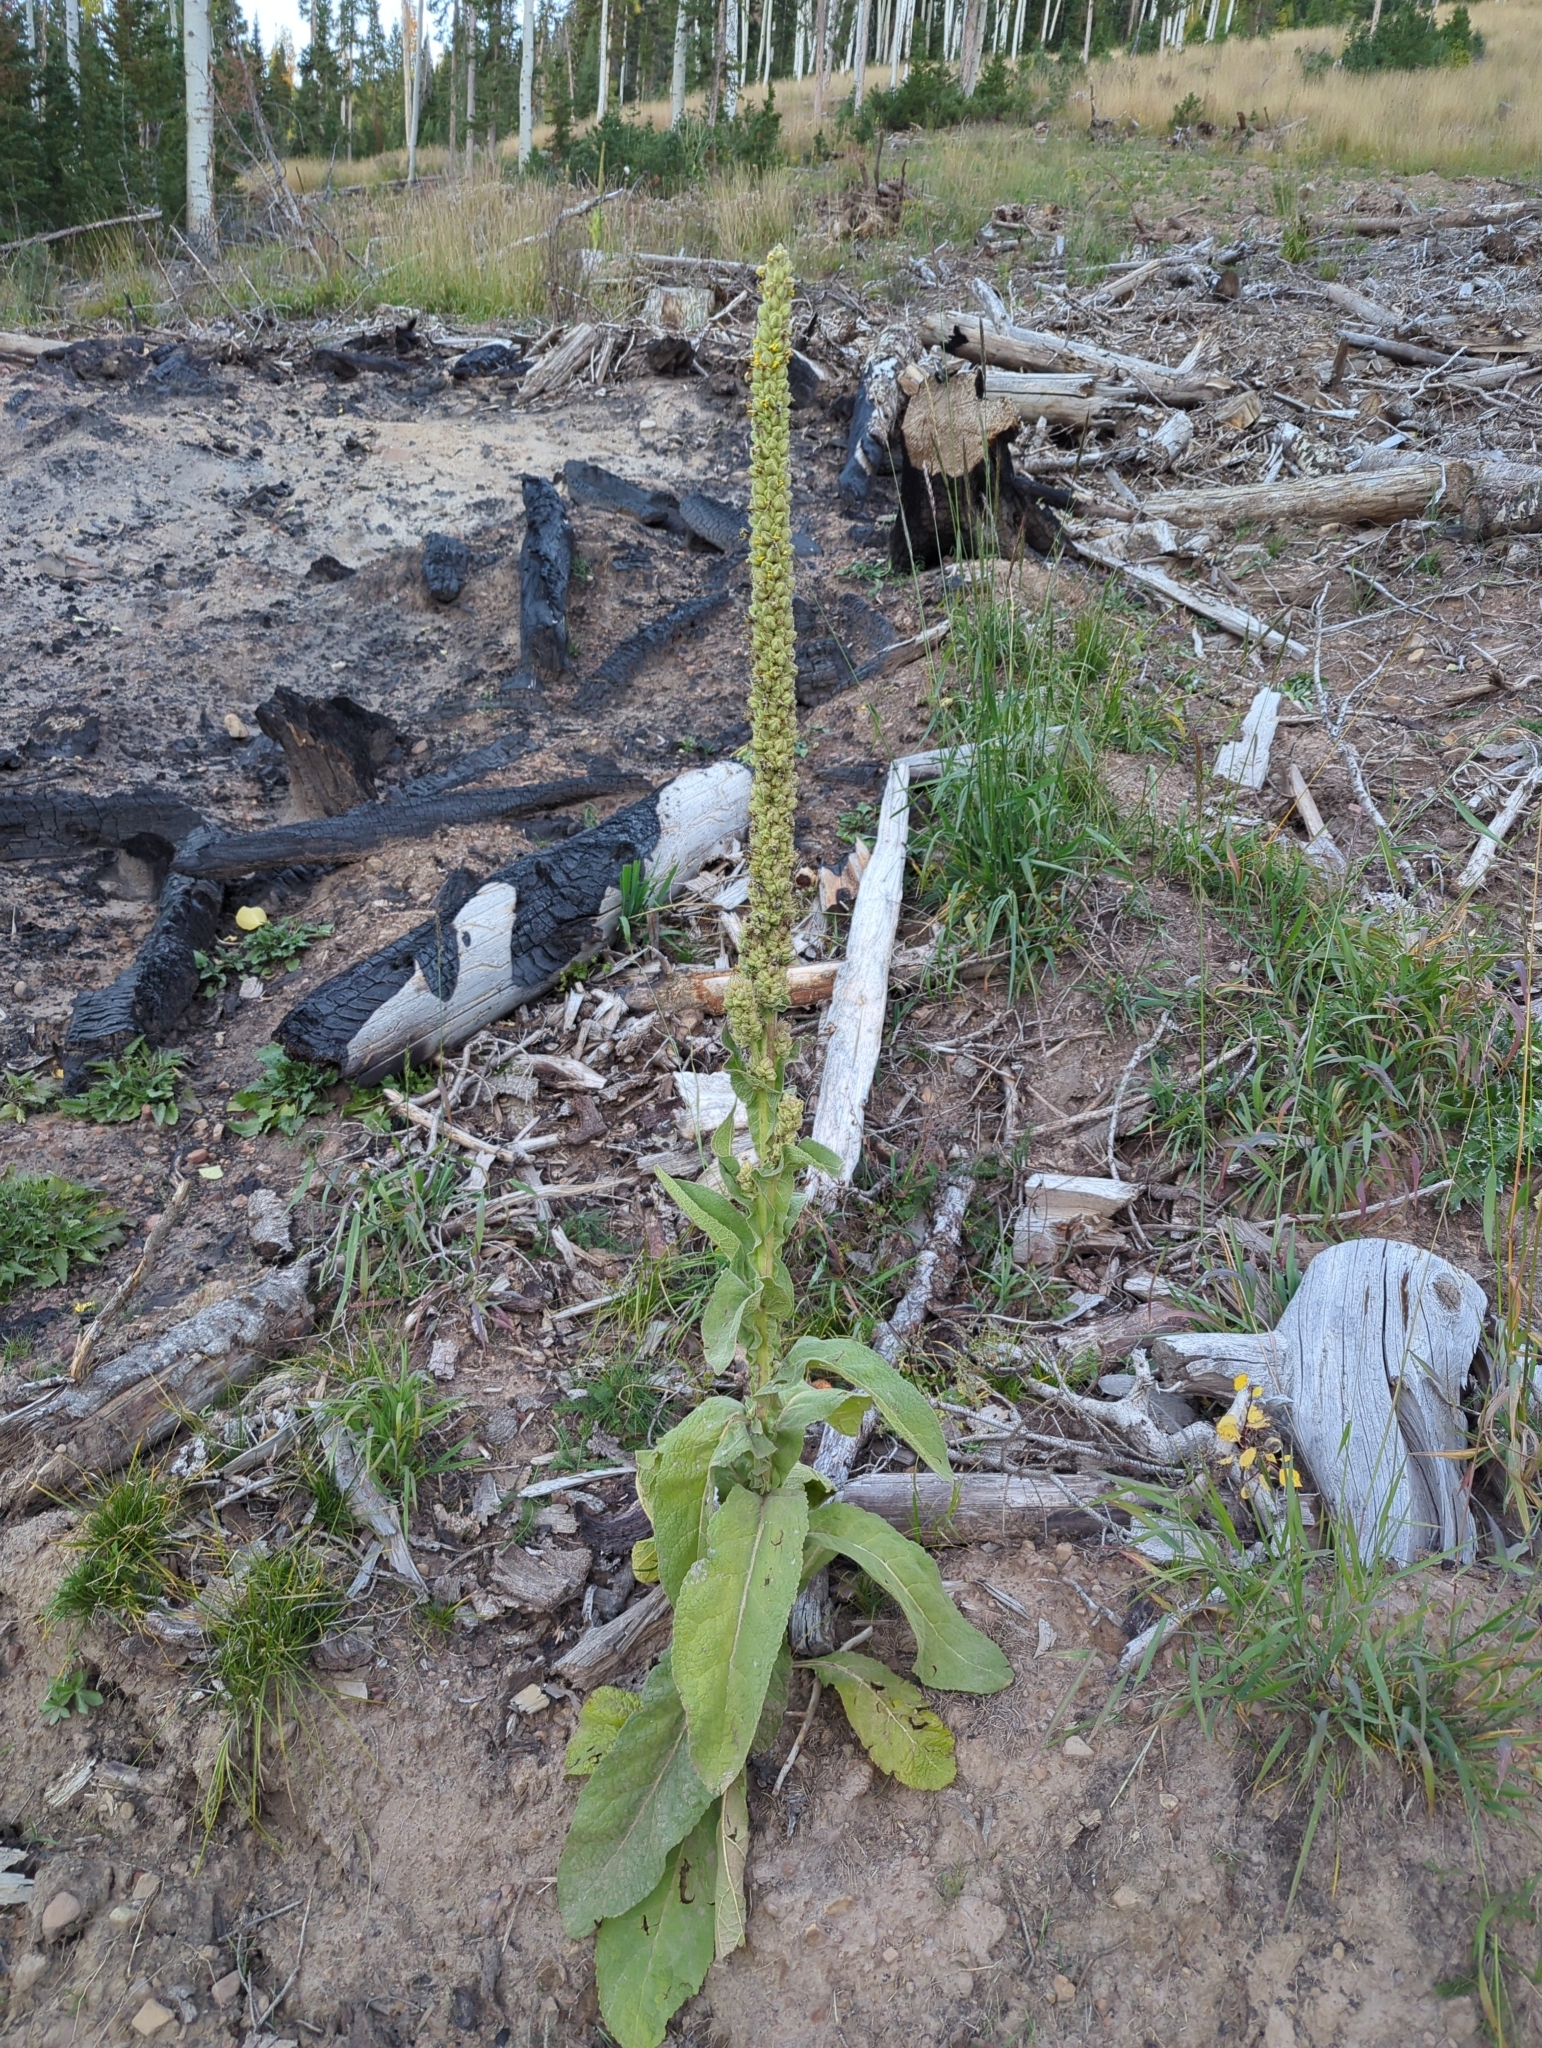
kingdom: Plantae
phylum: Tracheophyta
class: Magnoliopsida
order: Lamiales
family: Scrophulariaceae
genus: Verbascum
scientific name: Verbascum thapsus
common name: Common mullein
